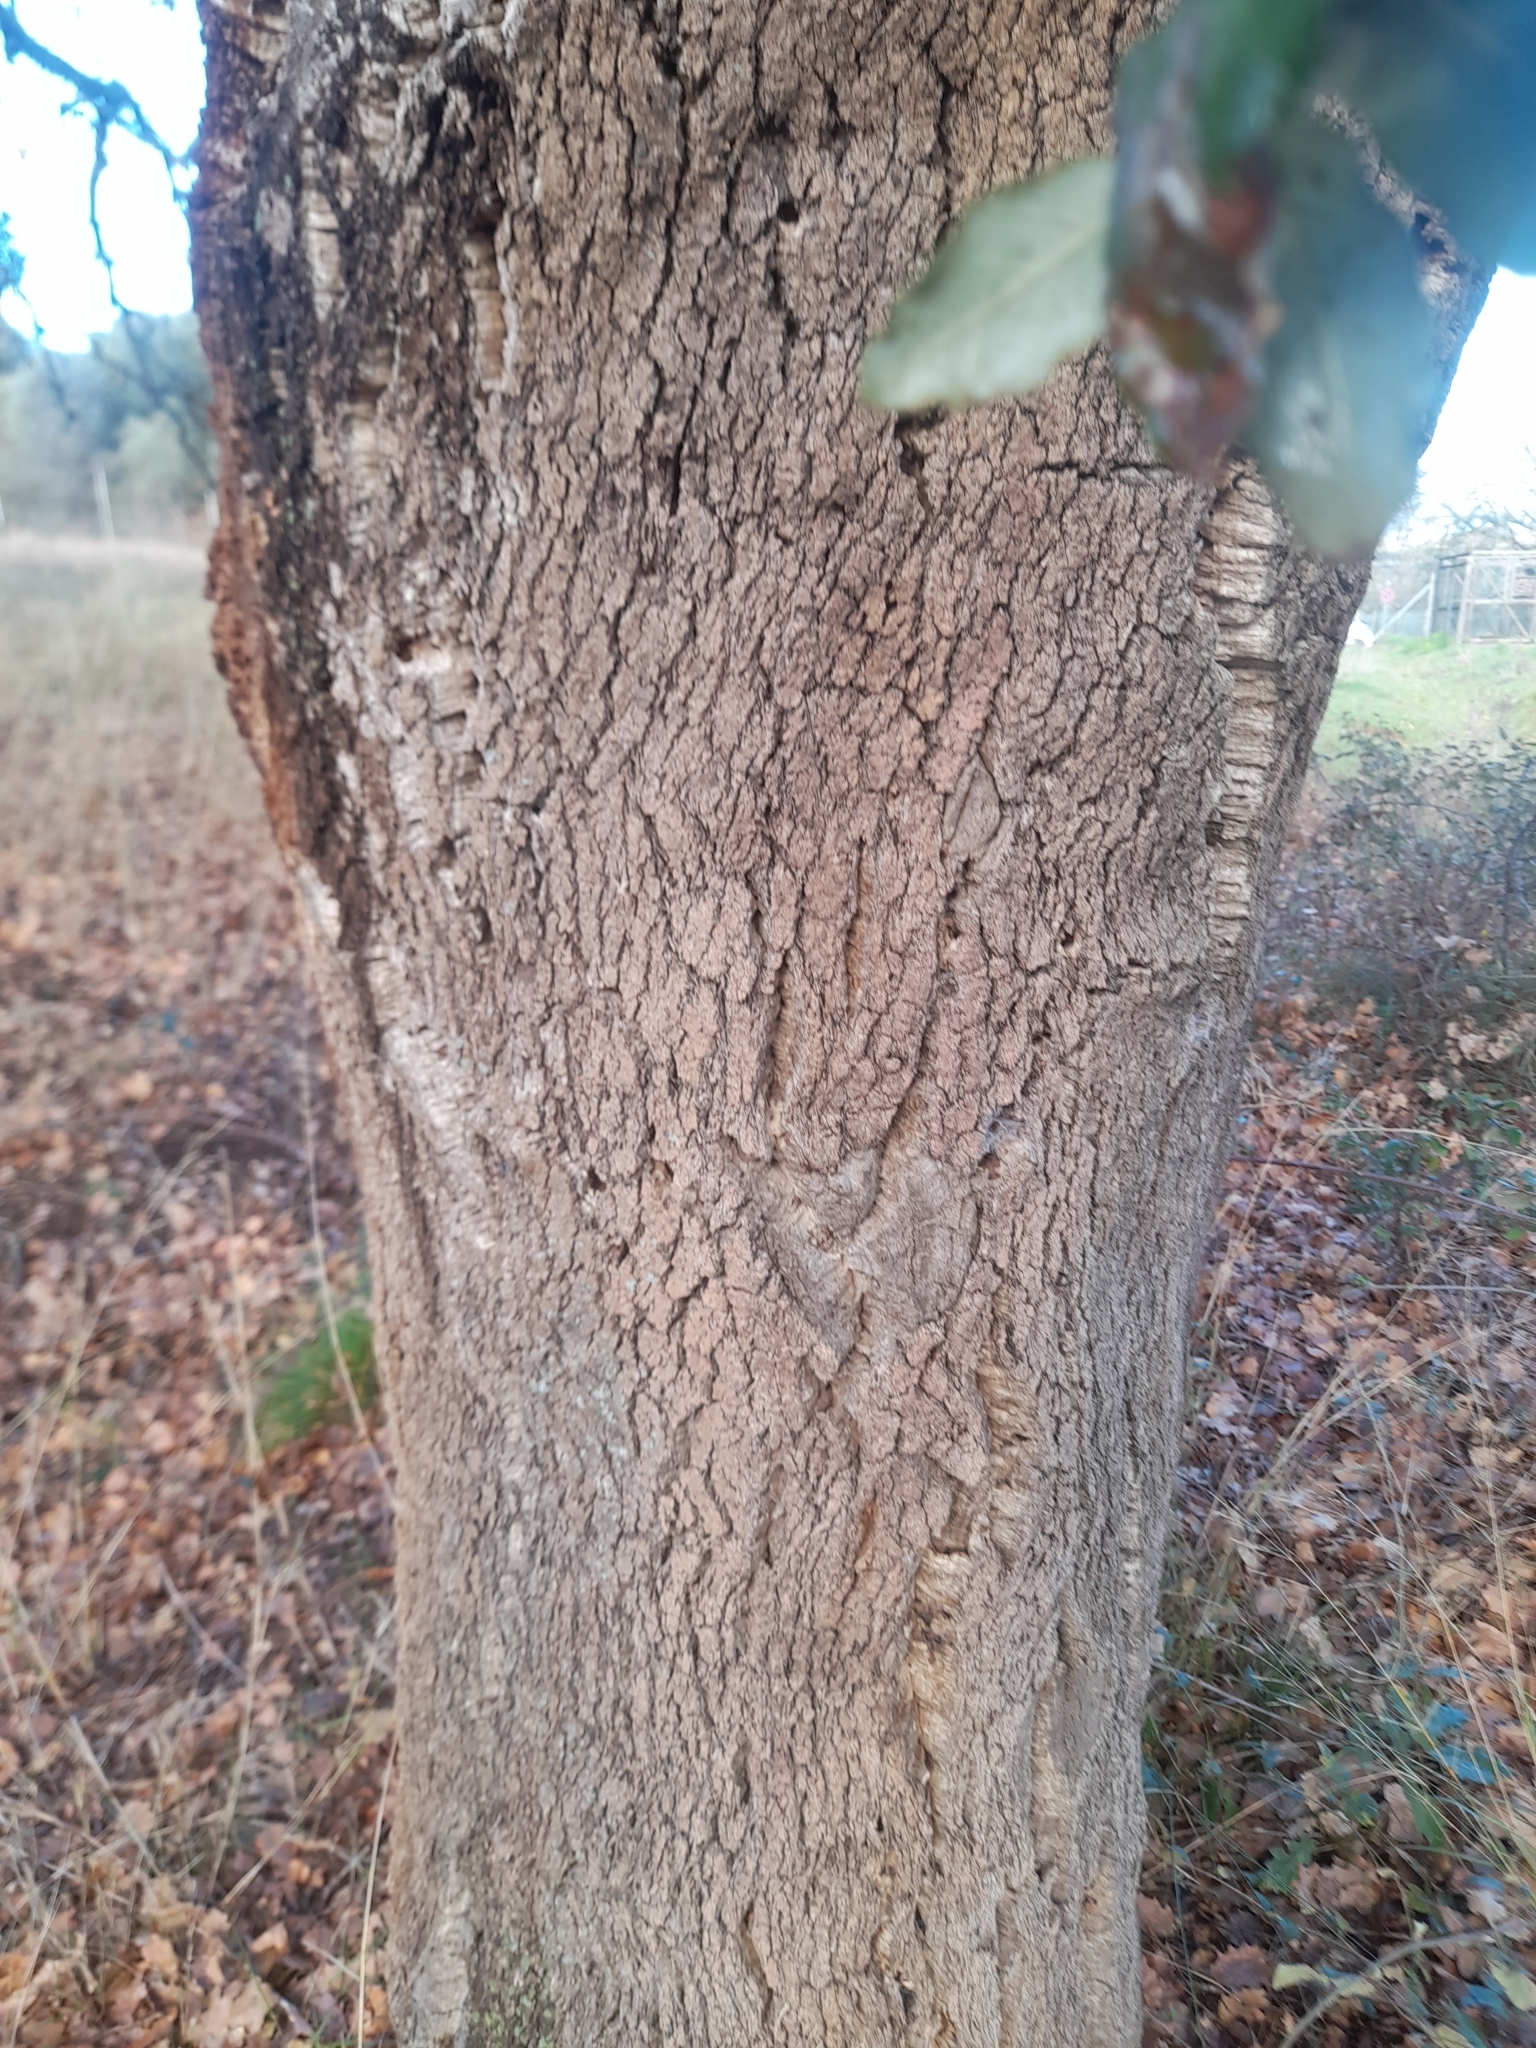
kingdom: Plantae
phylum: Tracheophyta
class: Magnoliopsida
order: Fagales
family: Fagaceae
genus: Quercus
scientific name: Quercus suber
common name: Cork oak
